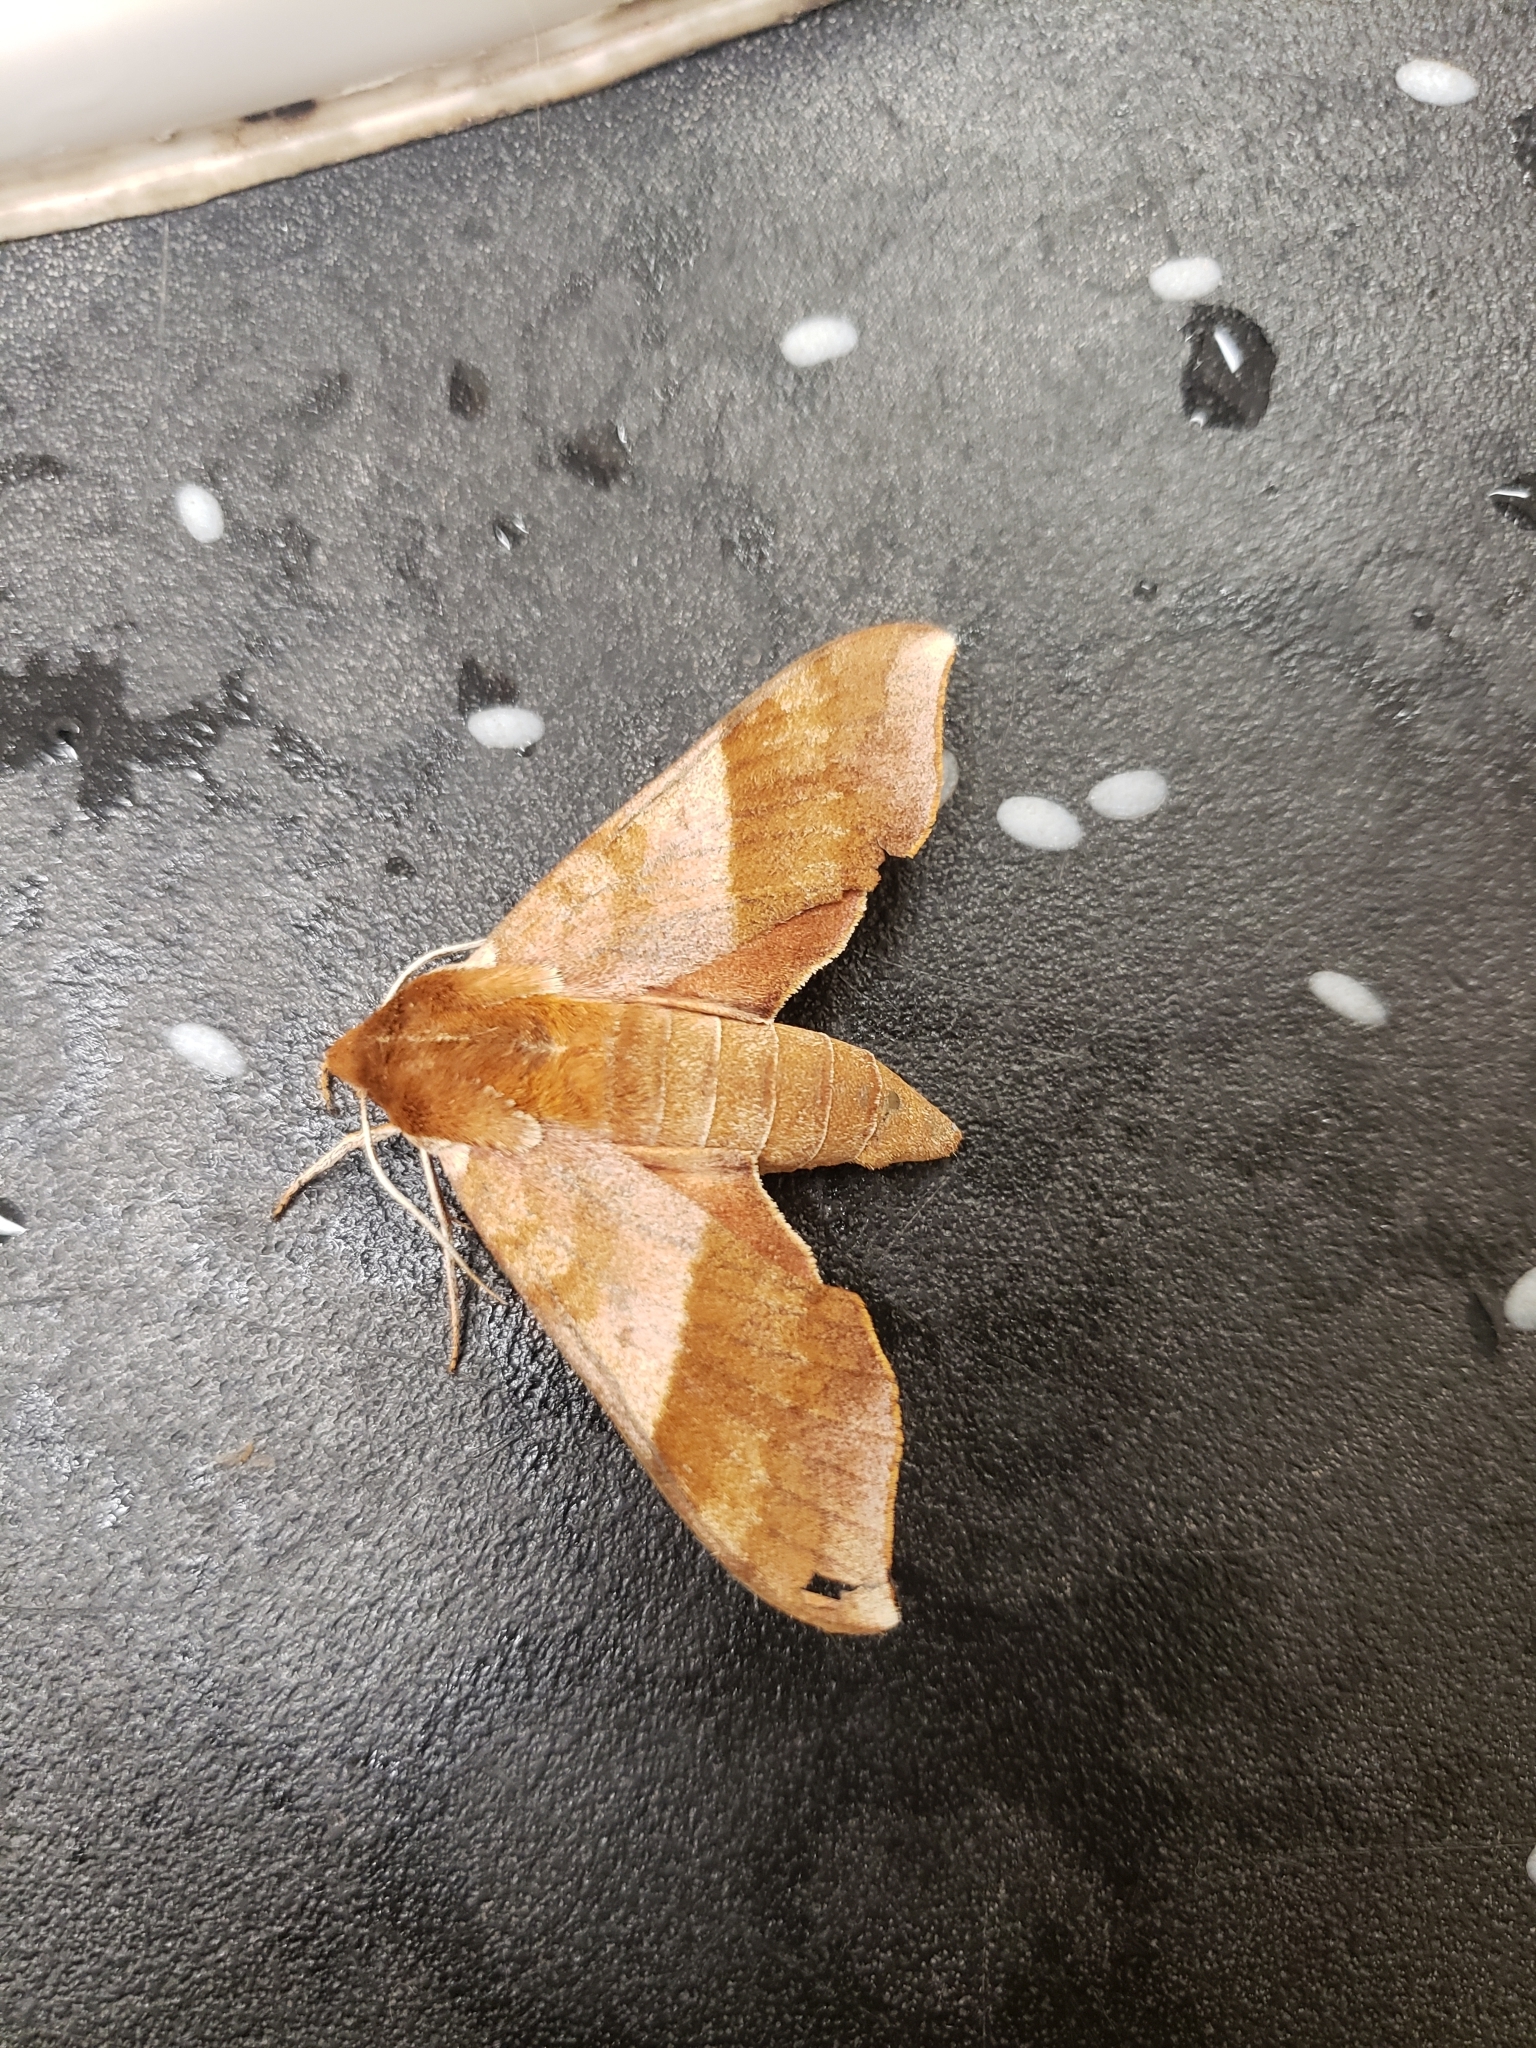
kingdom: Animalia
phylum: Arthropoda
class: Insecta
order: Lepidoptera
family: Sphingidae
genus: Darapsa
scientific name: Darapsa choerilus
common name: Azalea sphinx
